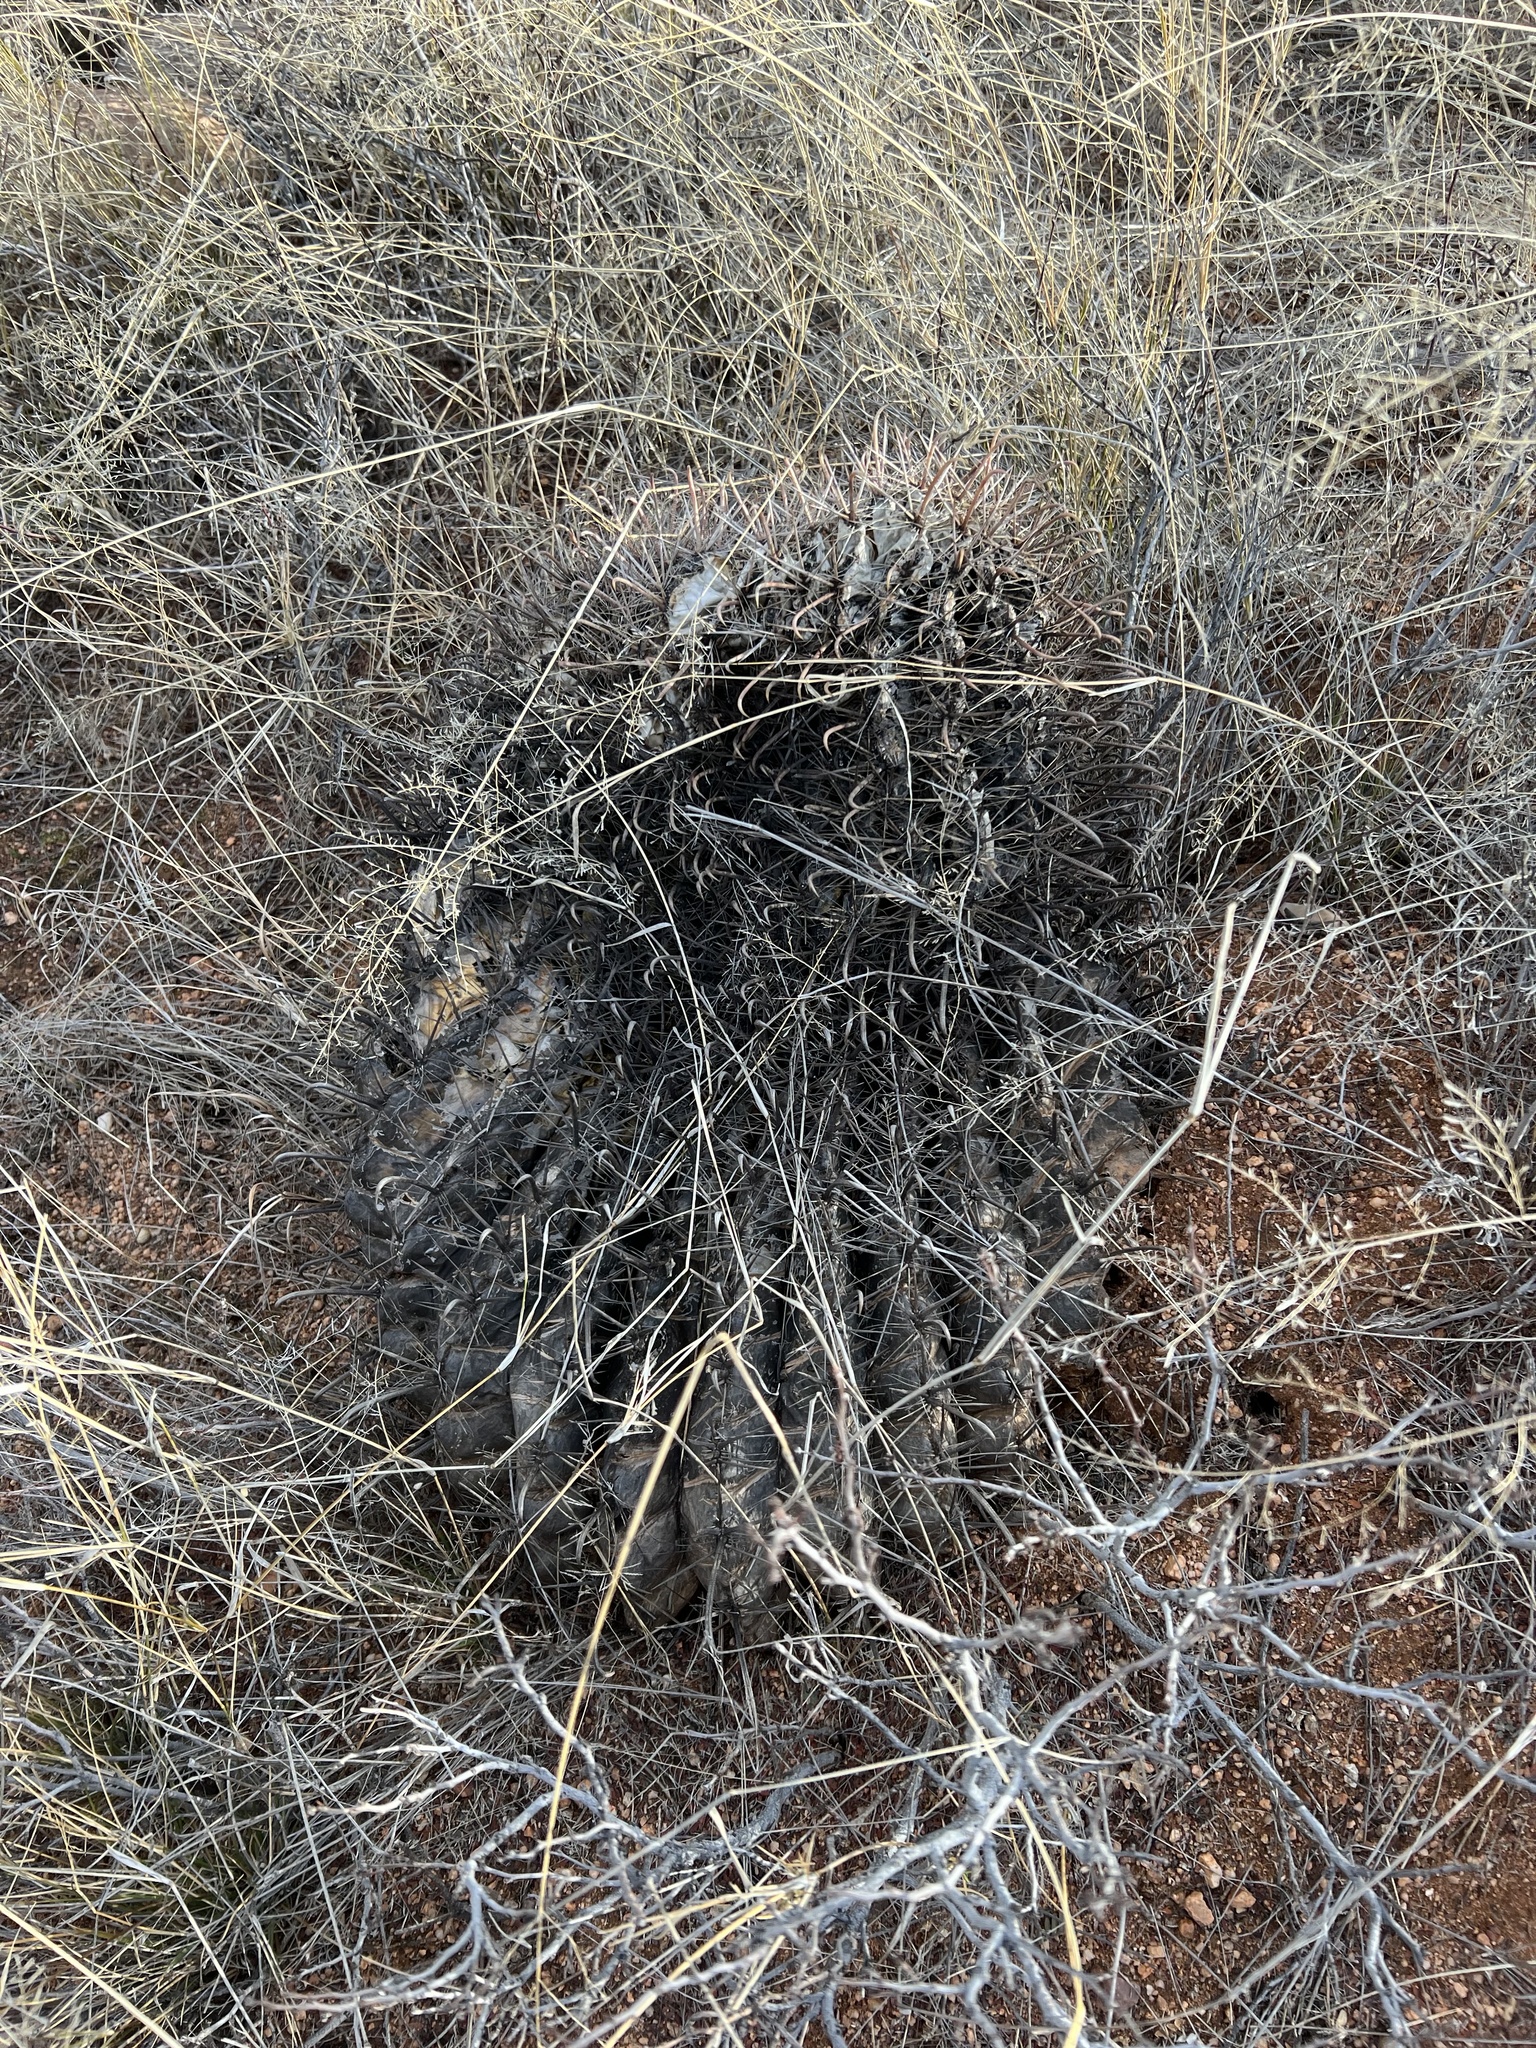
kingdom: Plantae
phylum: Tracheophyta
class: Magnoliopsida
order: Caryophyllales
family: Cactaceae
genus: Ferocactus
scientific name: Ferocactus wislizeni
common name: Candy barrel cactus
